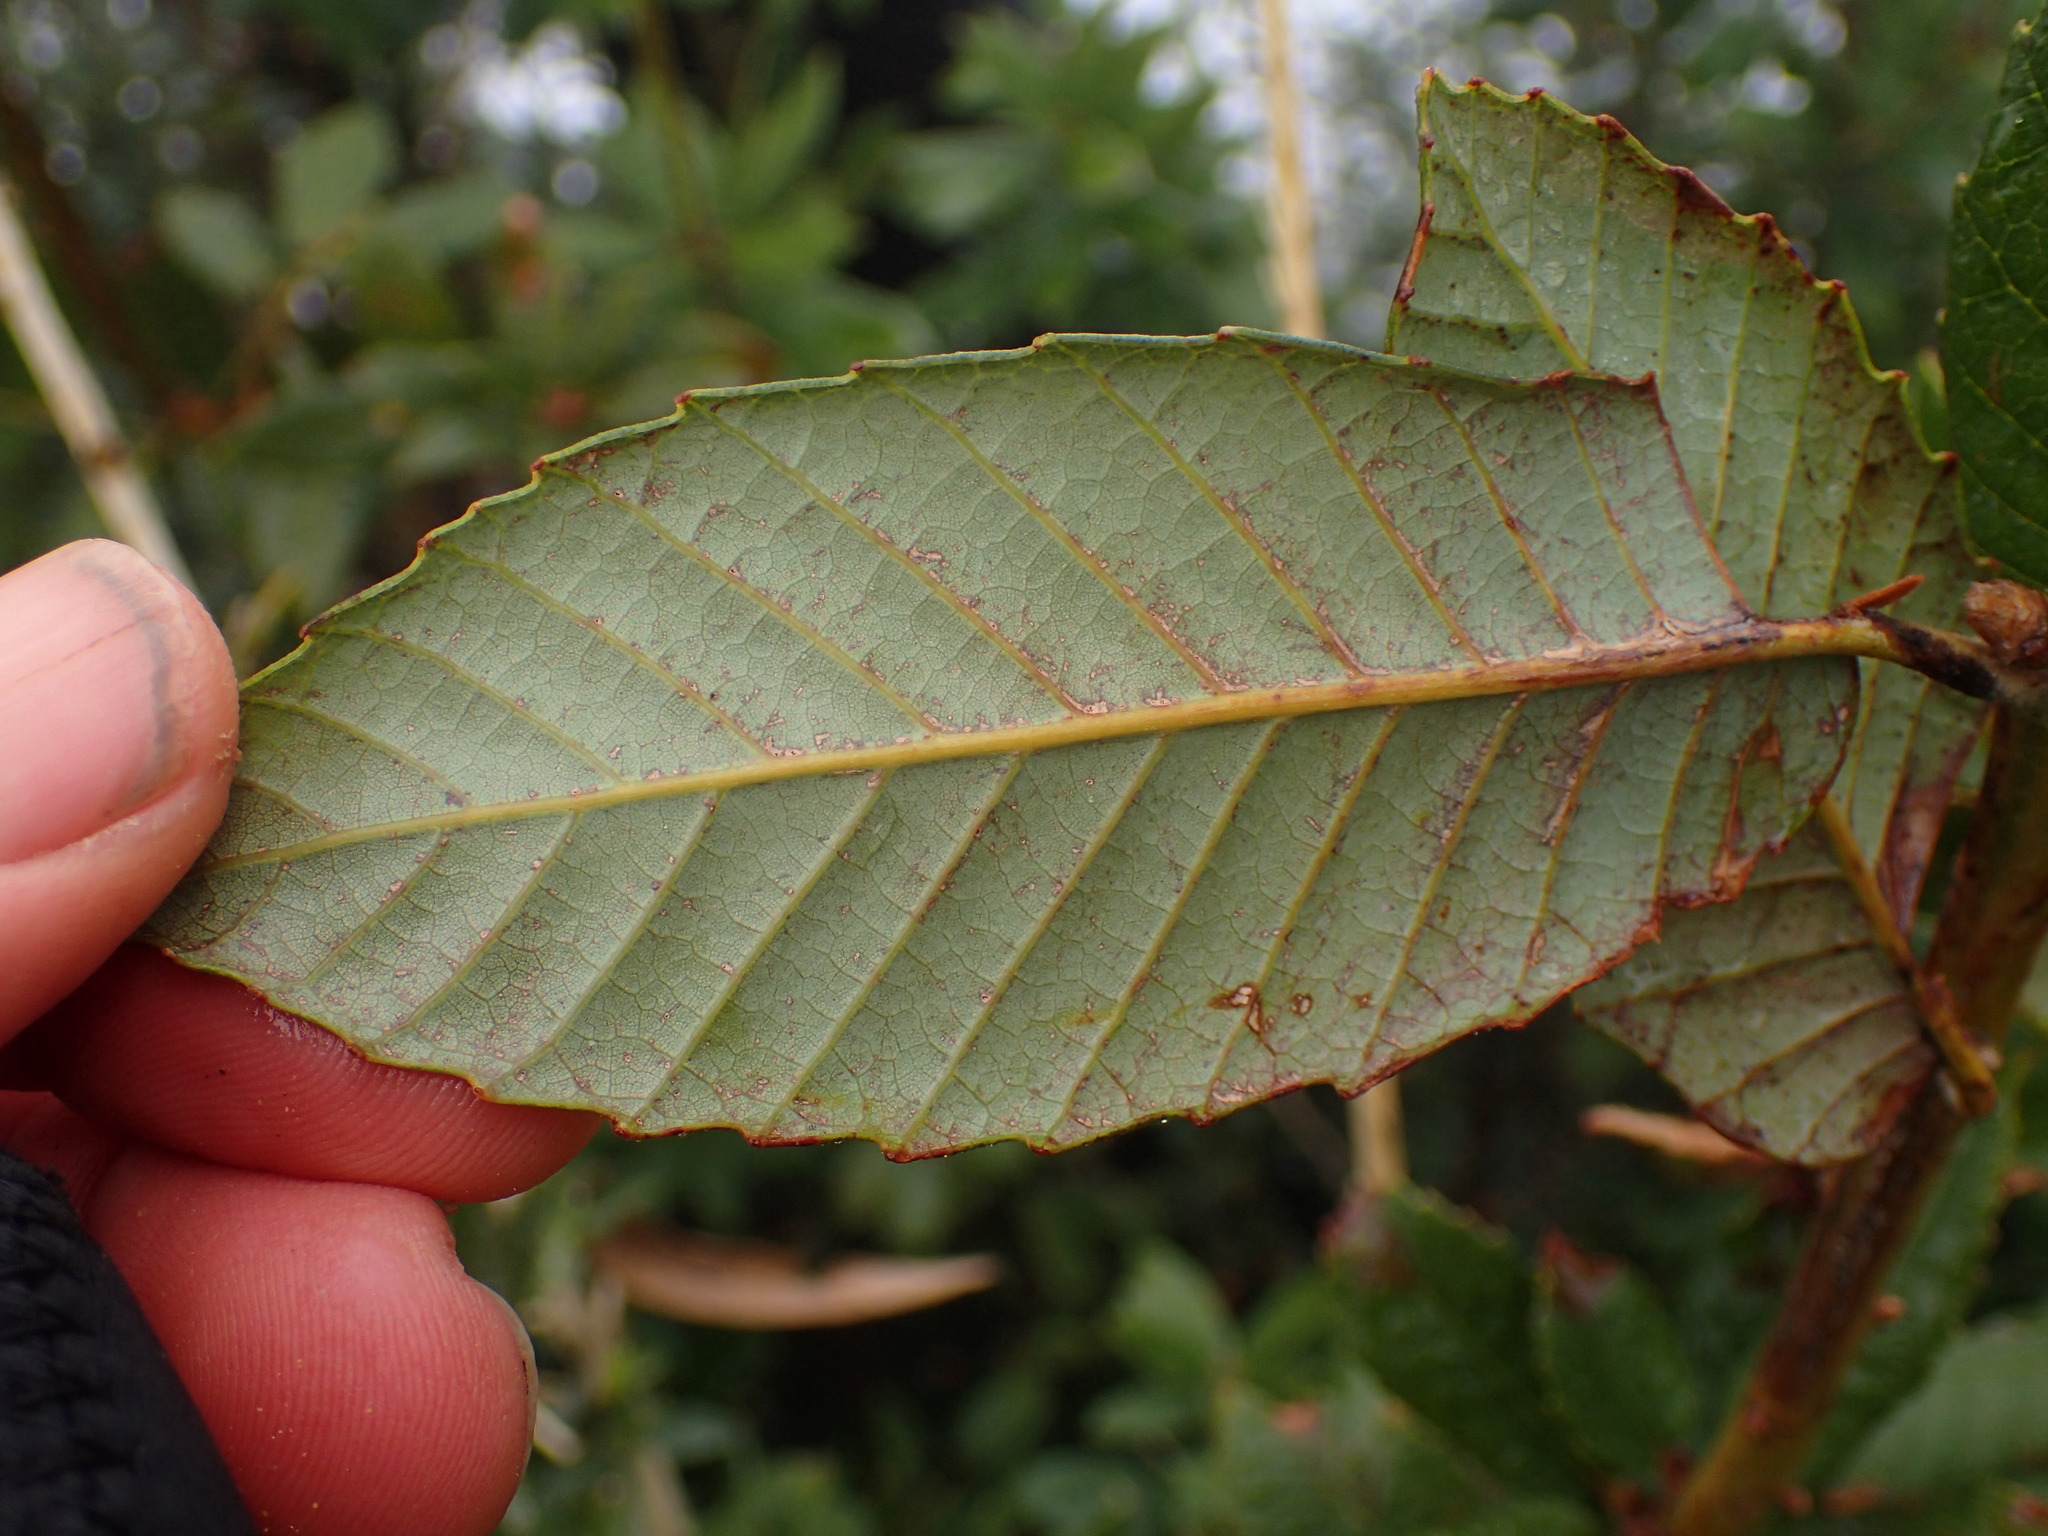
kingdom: Plantae
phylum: Tracheophyta
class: Magnoliopsida
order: Fagales
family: Fagaceae
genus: Notholithocarpus
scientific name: Notholithocarpus densiflorus
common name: Tan bark oak
